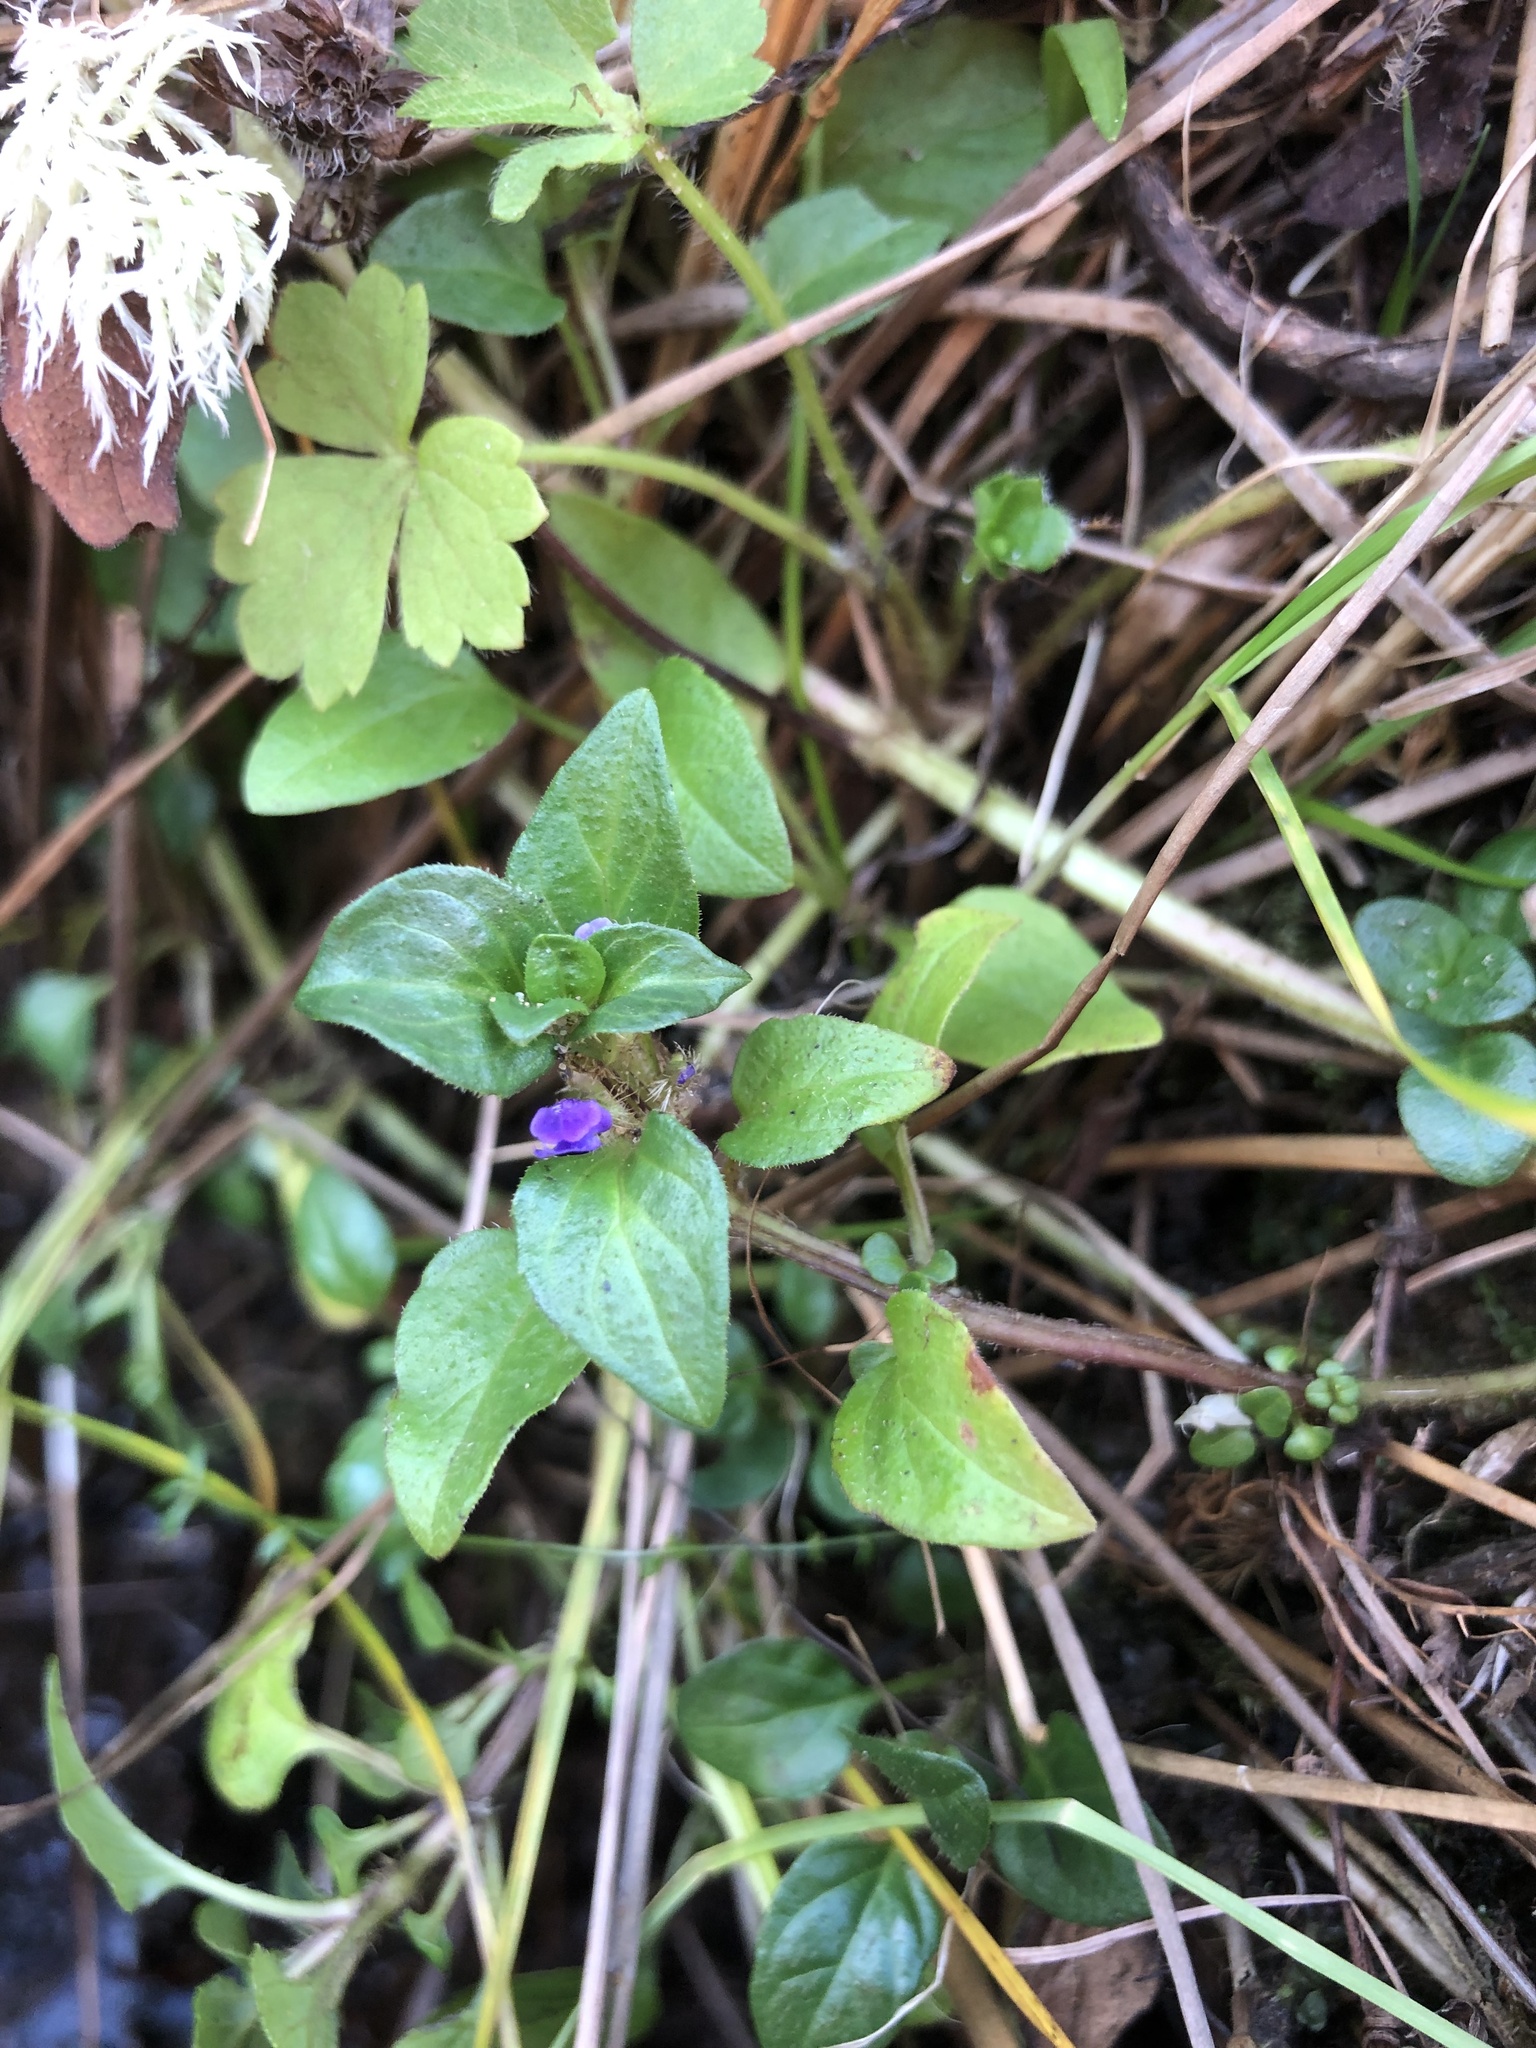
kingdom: Plantae
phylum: Tracheophyta
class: Magnoliopsida
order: Lamiales
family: Lamiaceae
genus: Prunella
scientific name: Prunella vulgaris
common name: Heal-all
